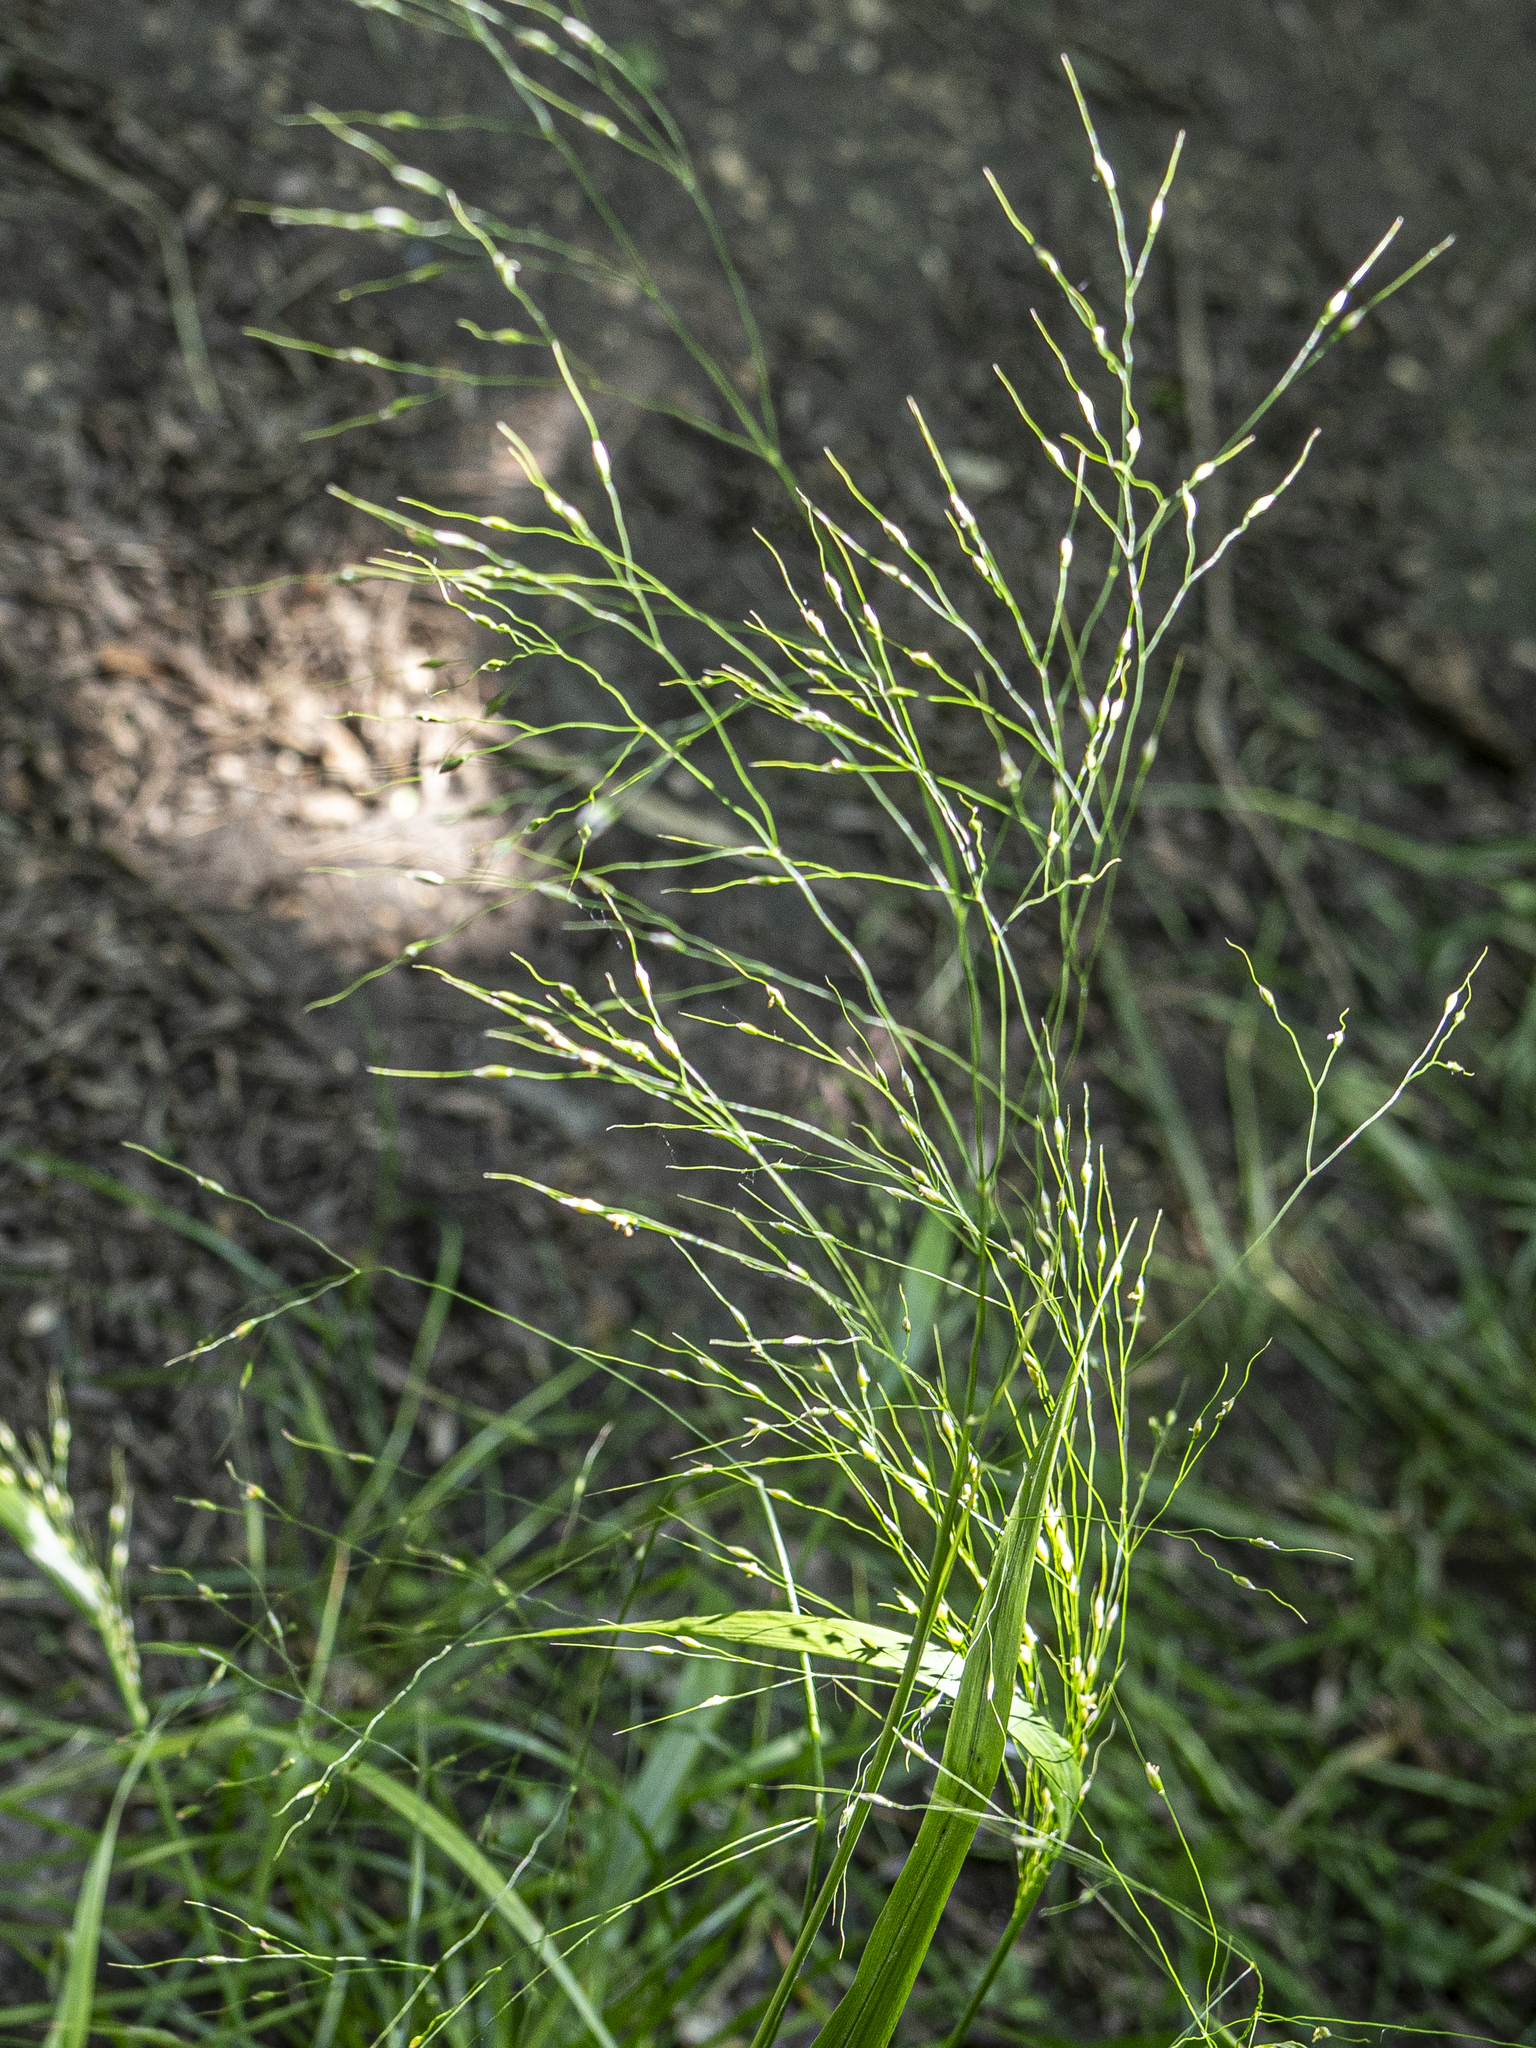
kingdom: Plantae
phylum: Tracheophyta
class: Liliopsida
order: Poales
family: Poaceae
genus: Achnatherum
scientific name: Achnatherum virescens
